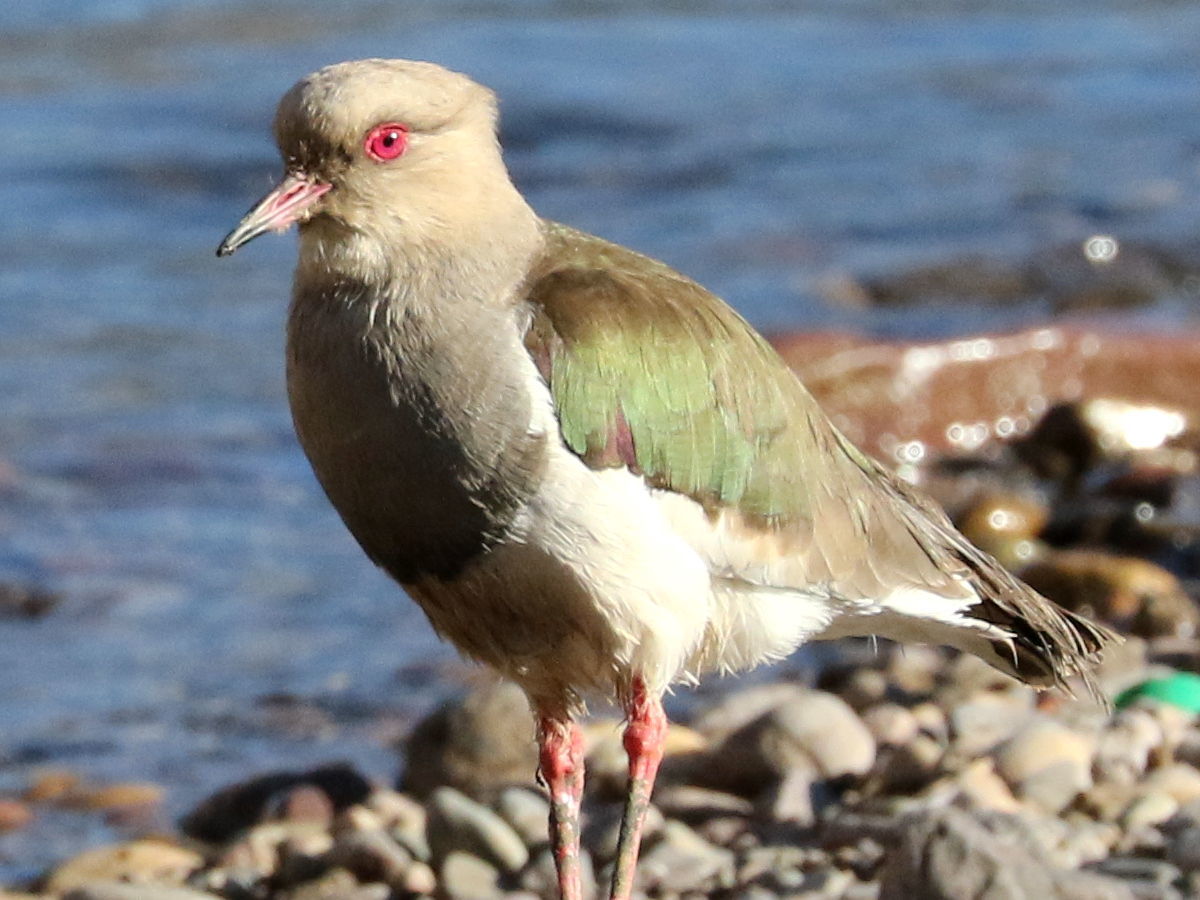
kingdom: Animalia
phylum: Chordata
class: Aves
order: Charadriiformes
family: Charadriidae
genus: Vanellus
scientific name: Vanellus resplendens
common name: Andean lapwing
